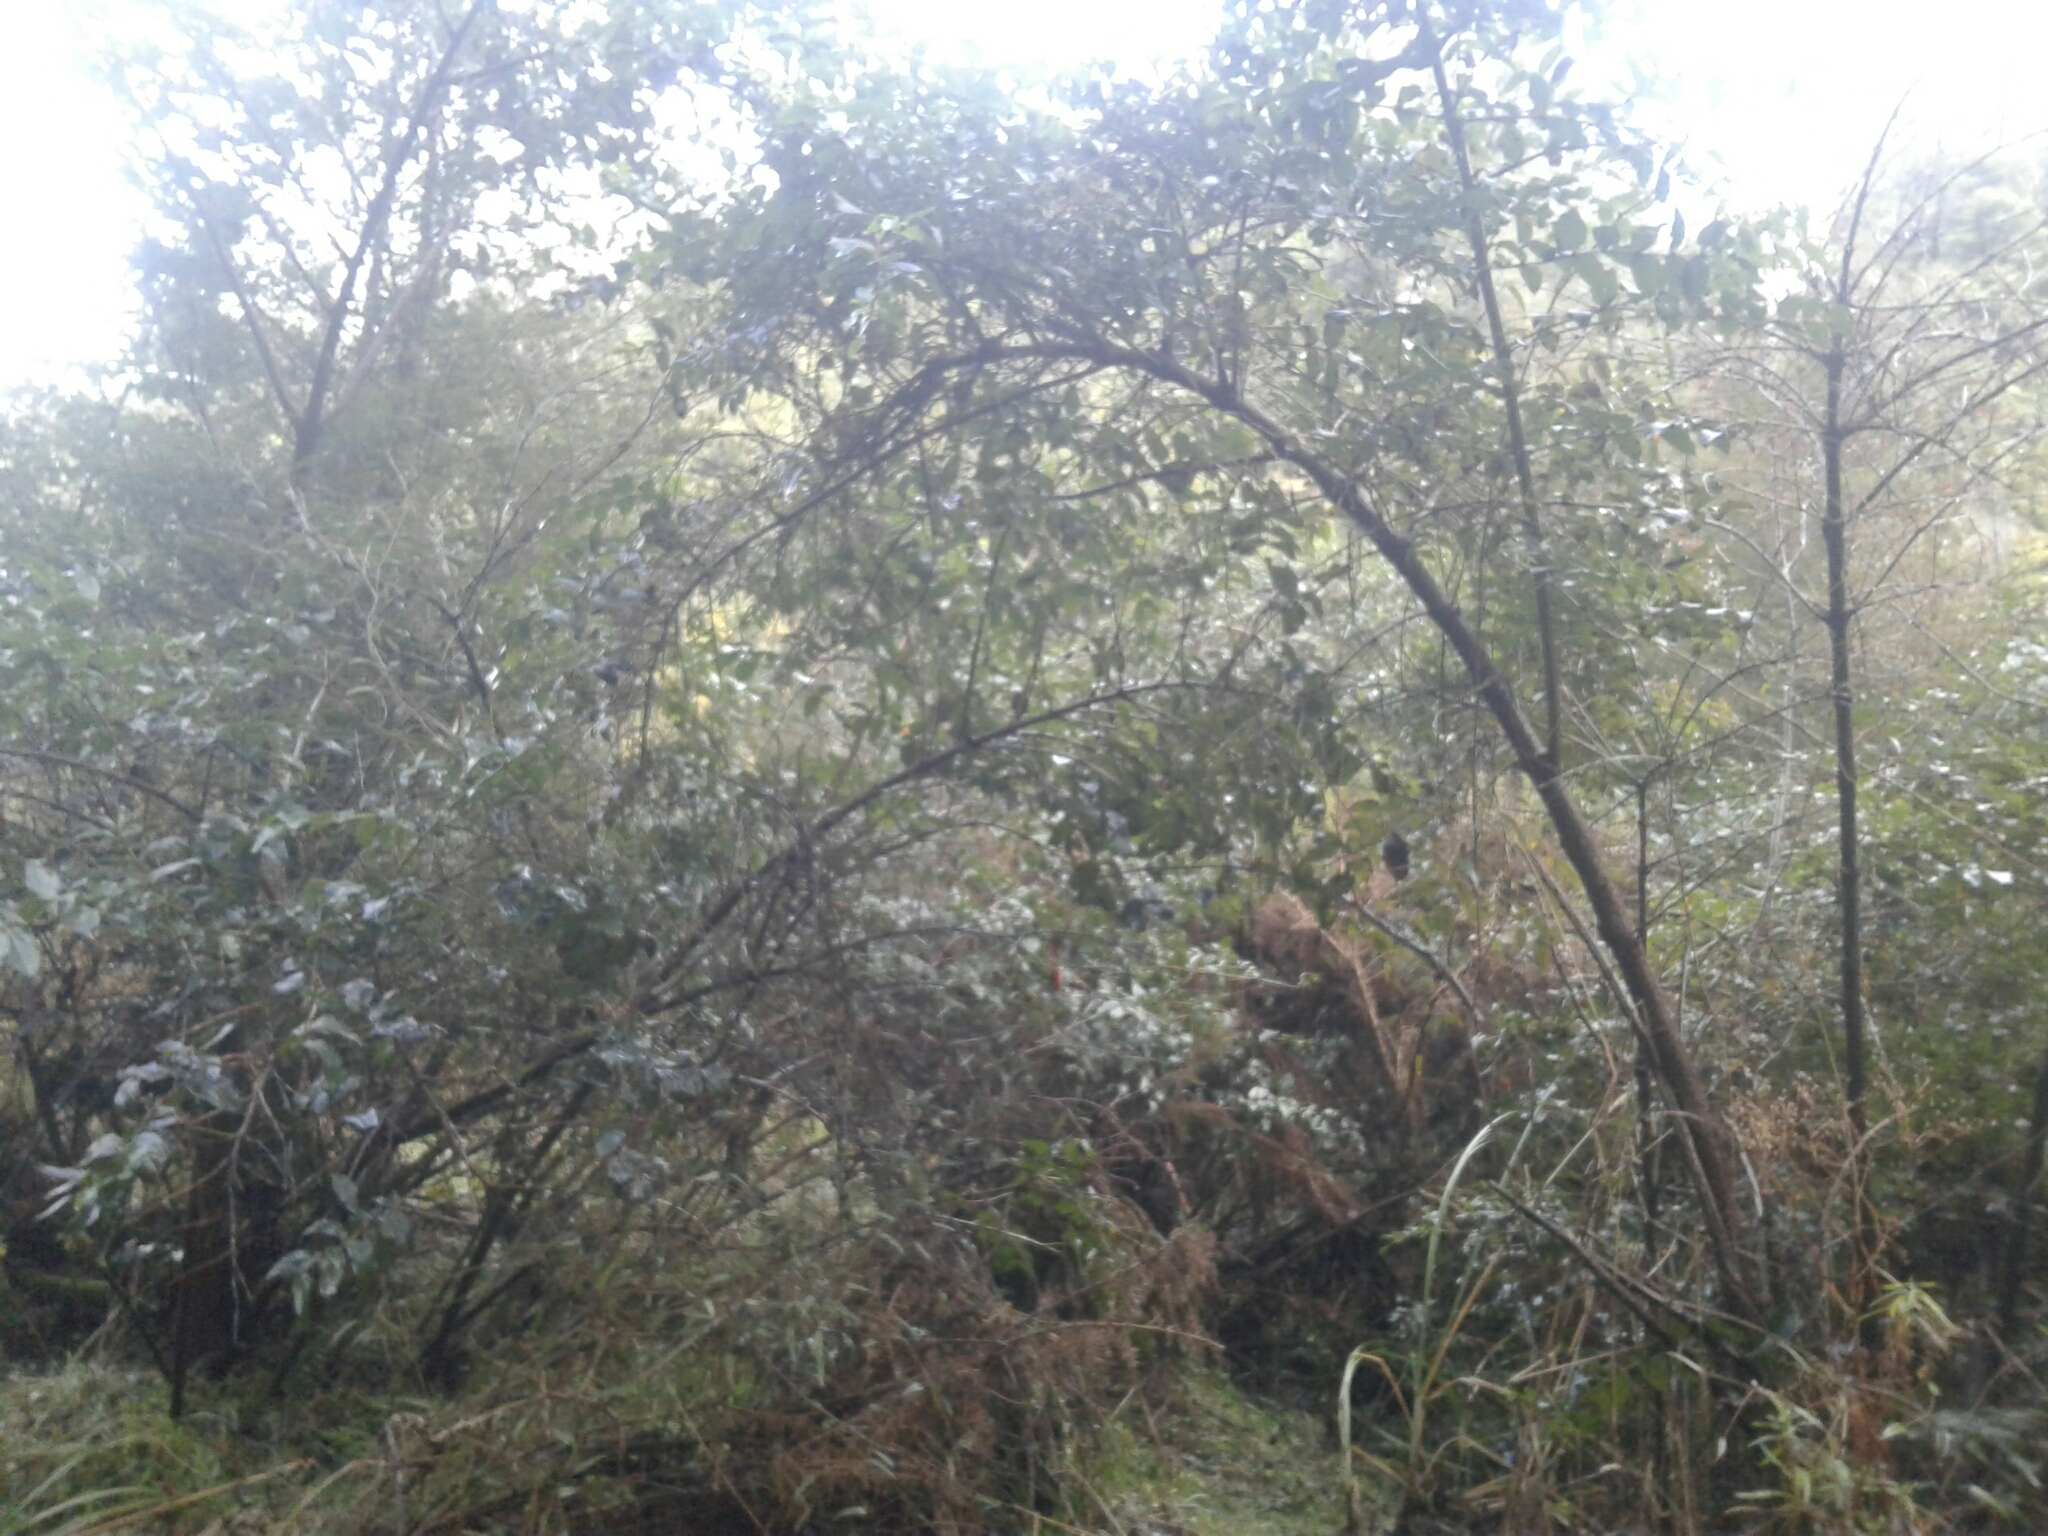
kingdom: Plantae
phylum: Tracheophyta
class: Magnoliopsida
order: Cucurbitales
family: Coriariaceae
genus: Coriaria
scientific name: Coriaria arborea
